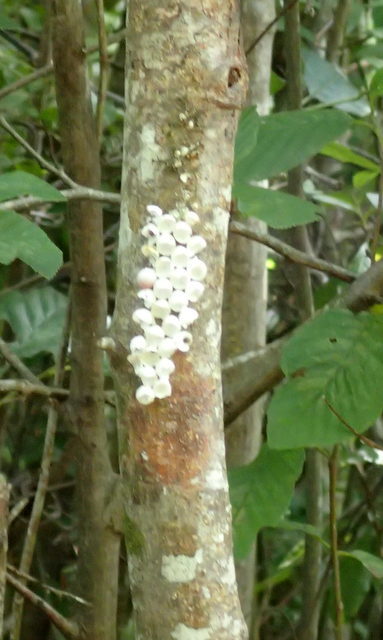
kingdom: Animalia
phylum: Mollusca
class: Gastropoda
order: Architaenioglossa
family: Ampullariidae
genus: Pomacea
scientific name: Pomacea paludosa
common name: Florida applesnail
